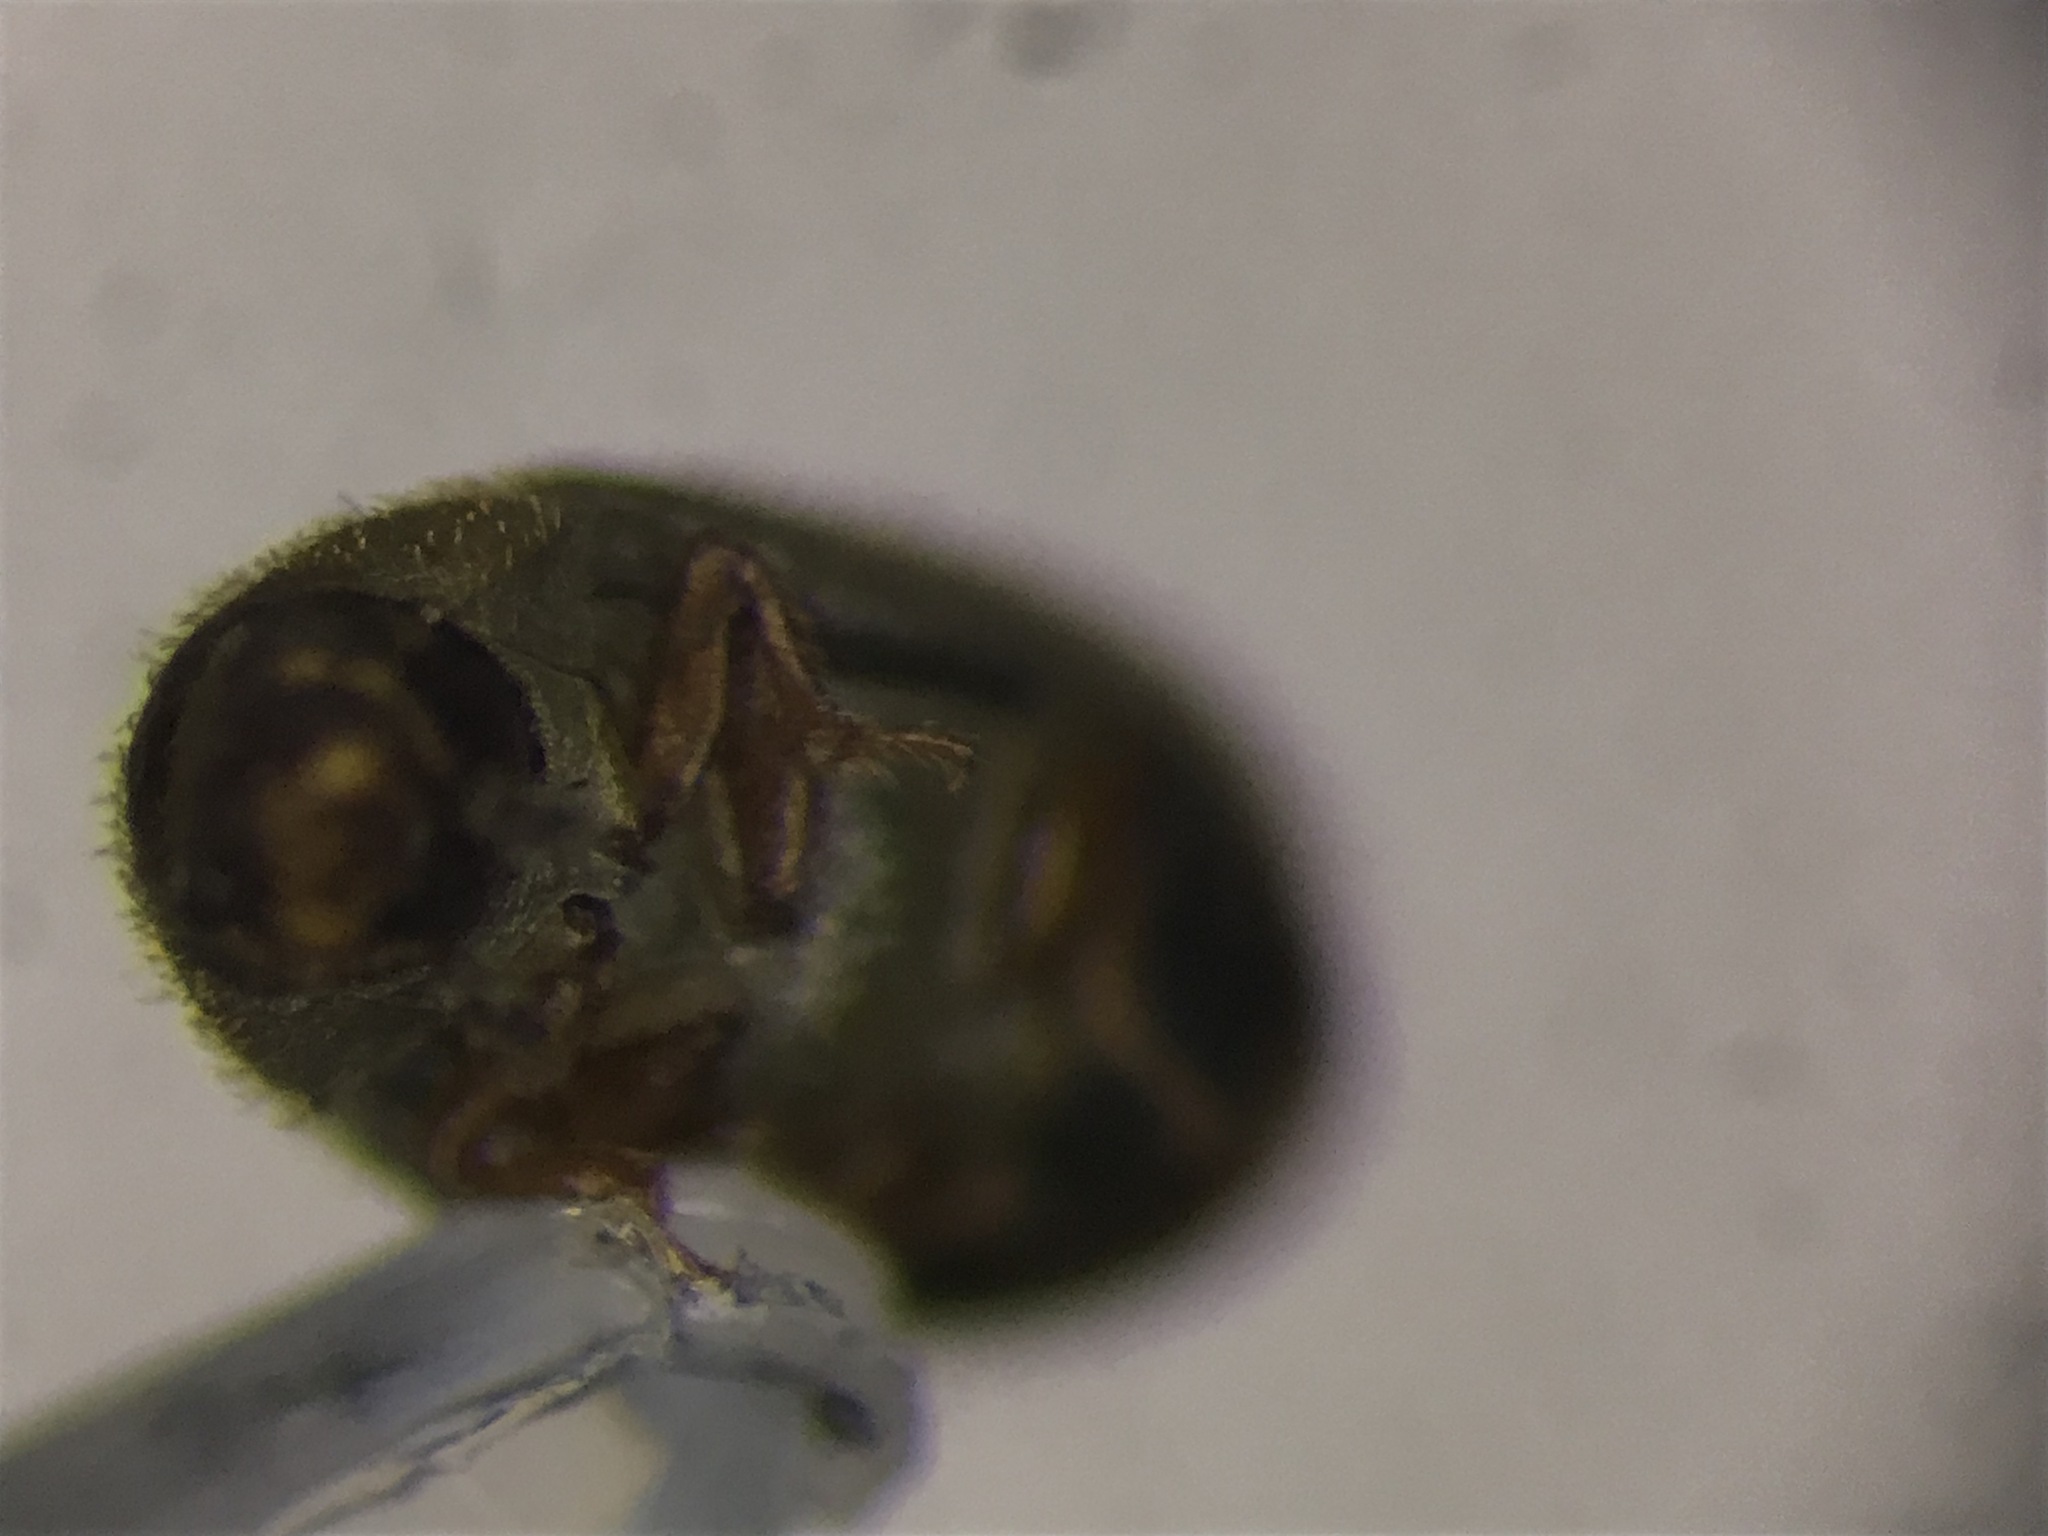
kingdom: Animalia
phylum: Arthropoda
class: Insecta
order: Coleoptera
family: Ciidae
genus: Malacocis
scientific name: Malacocis brevicollis
